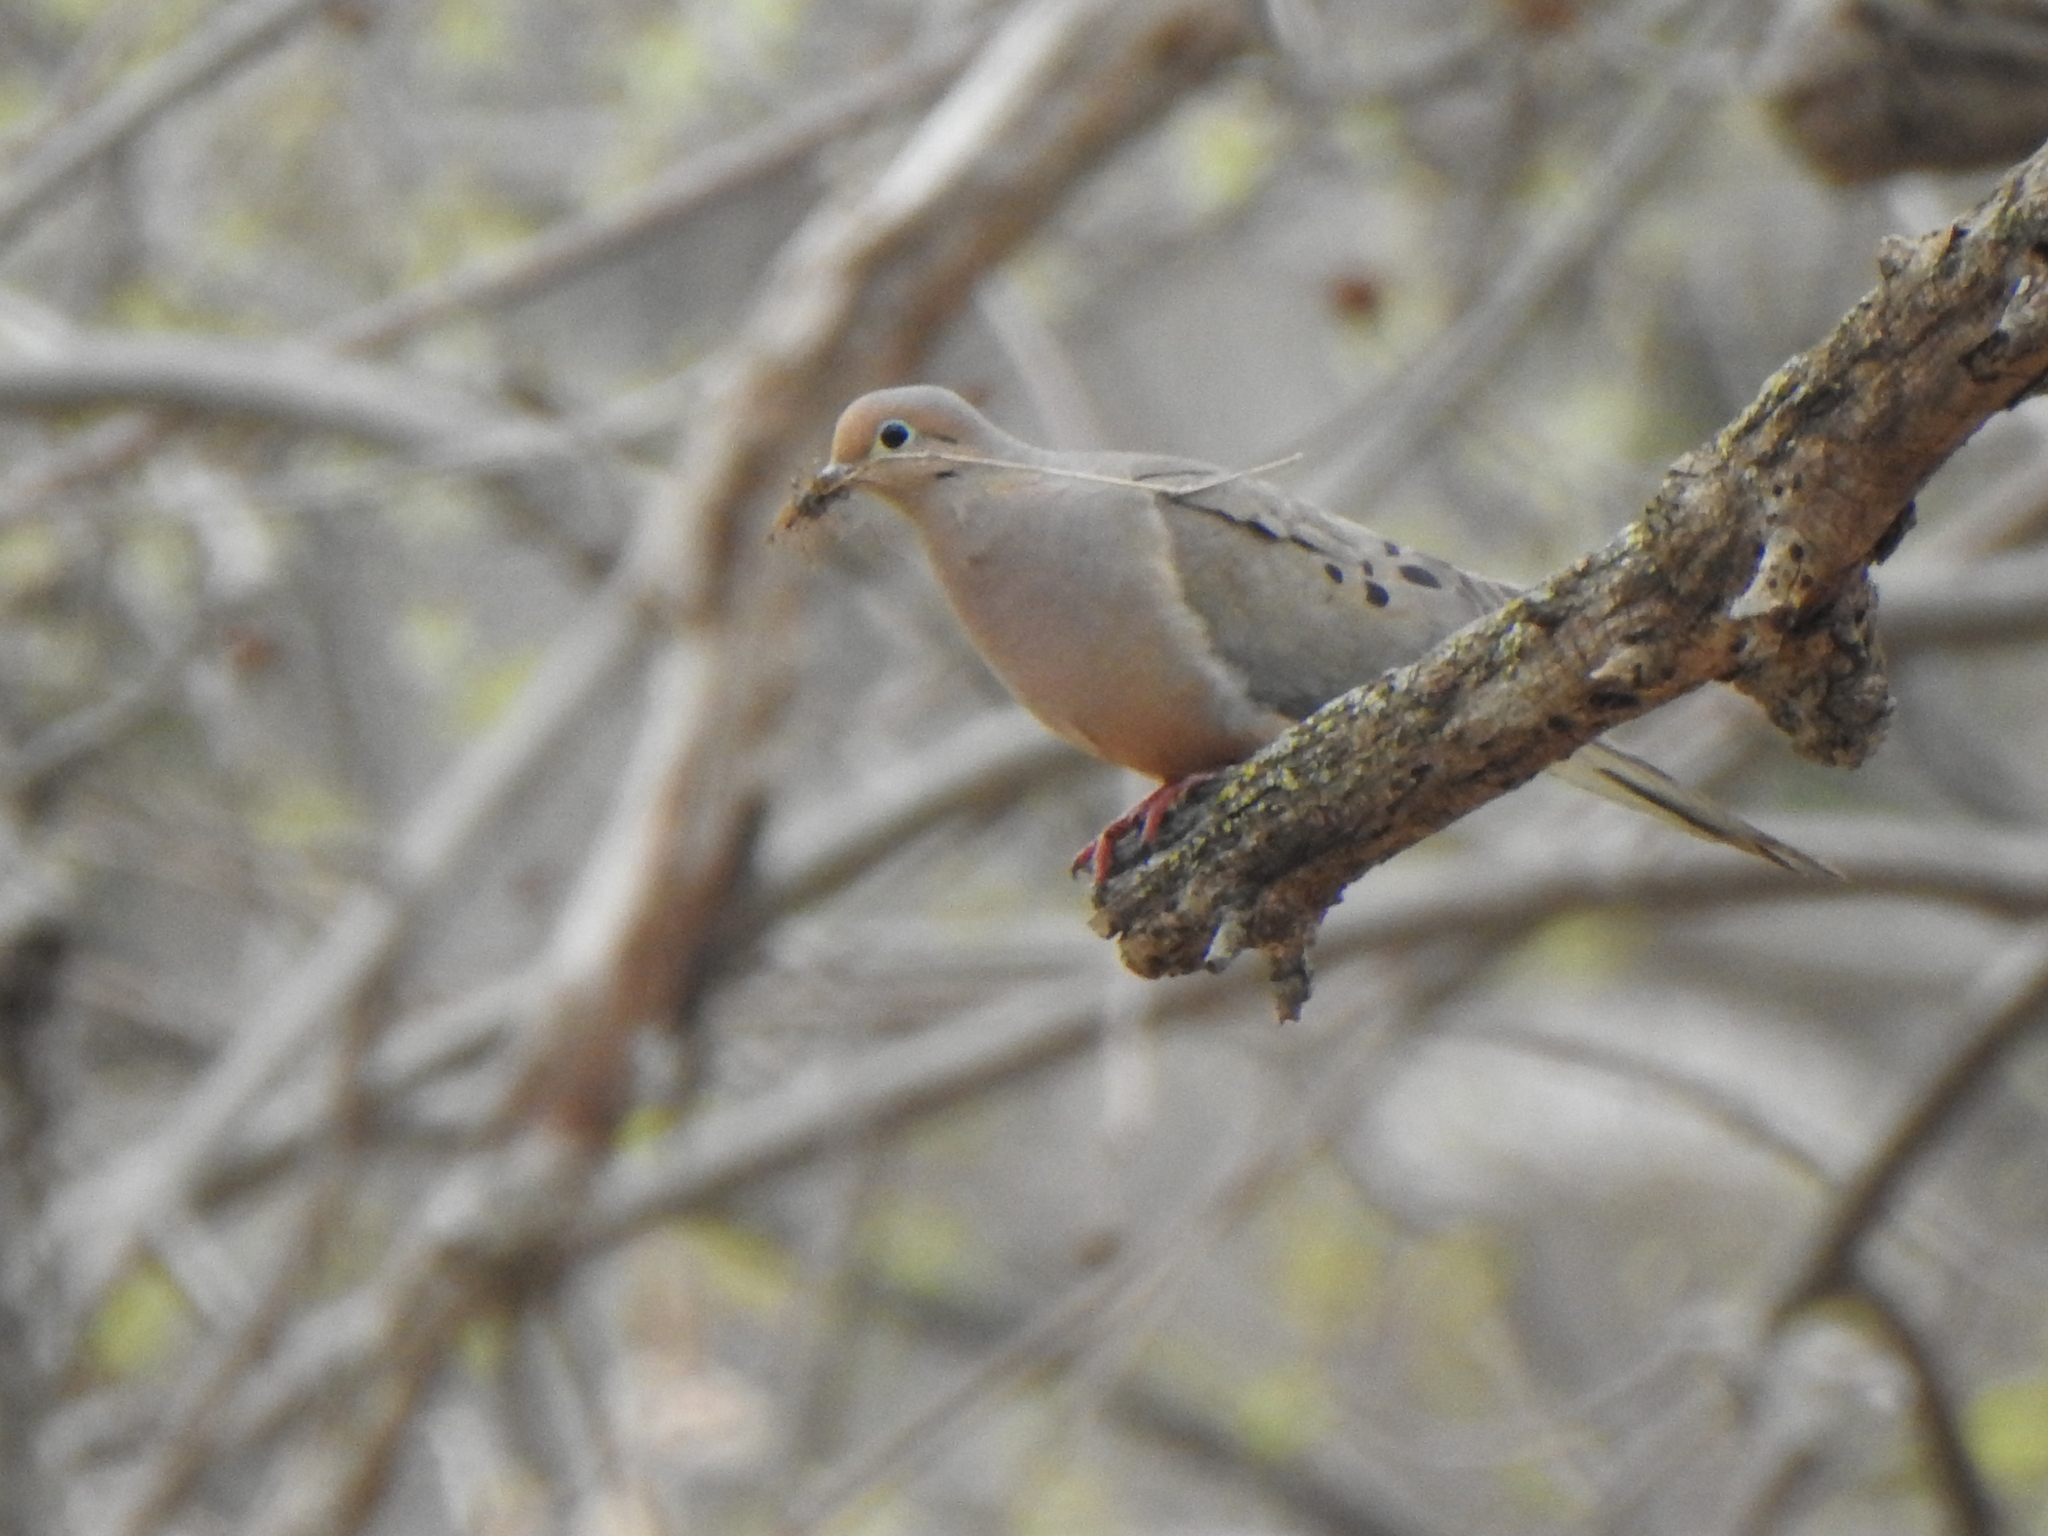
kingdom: Animalia
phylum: Chordata
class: Aves
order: Columbiformes
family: Columbidae
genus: Zenaida
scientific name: Zenaida macroura
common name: Mourning dove
